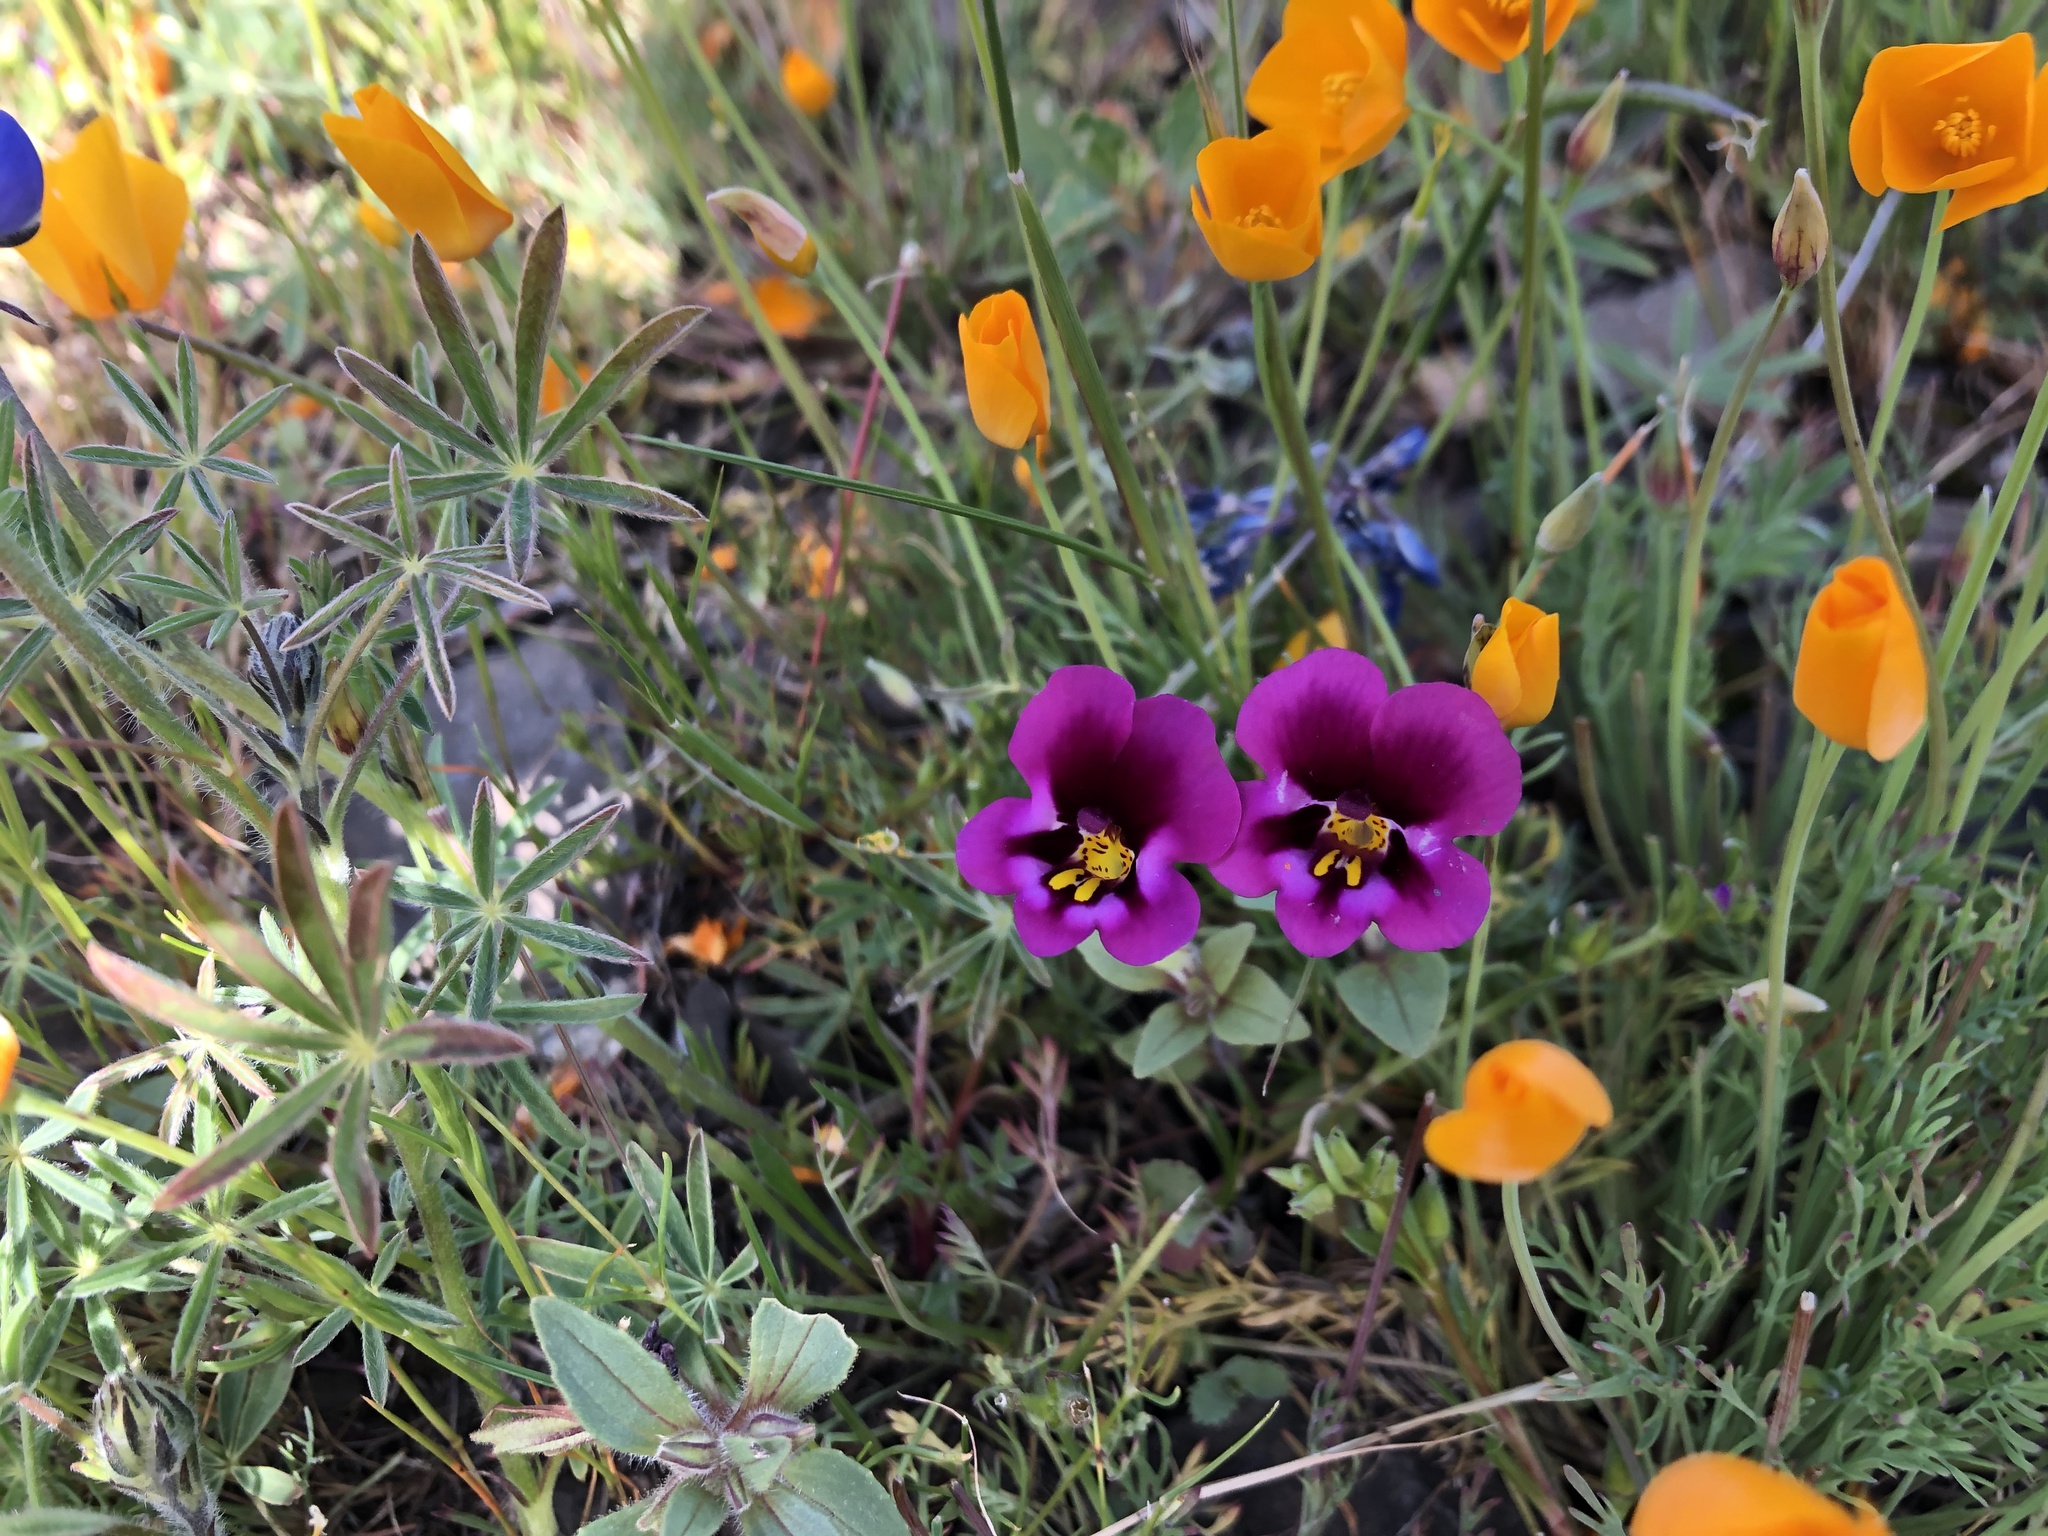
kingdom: Plantae
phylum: Tracheophyta
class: Magnoliopsida
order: Lamiales
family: Phrymaceae
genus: Diplacus
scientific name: Diplacus kelloggii
